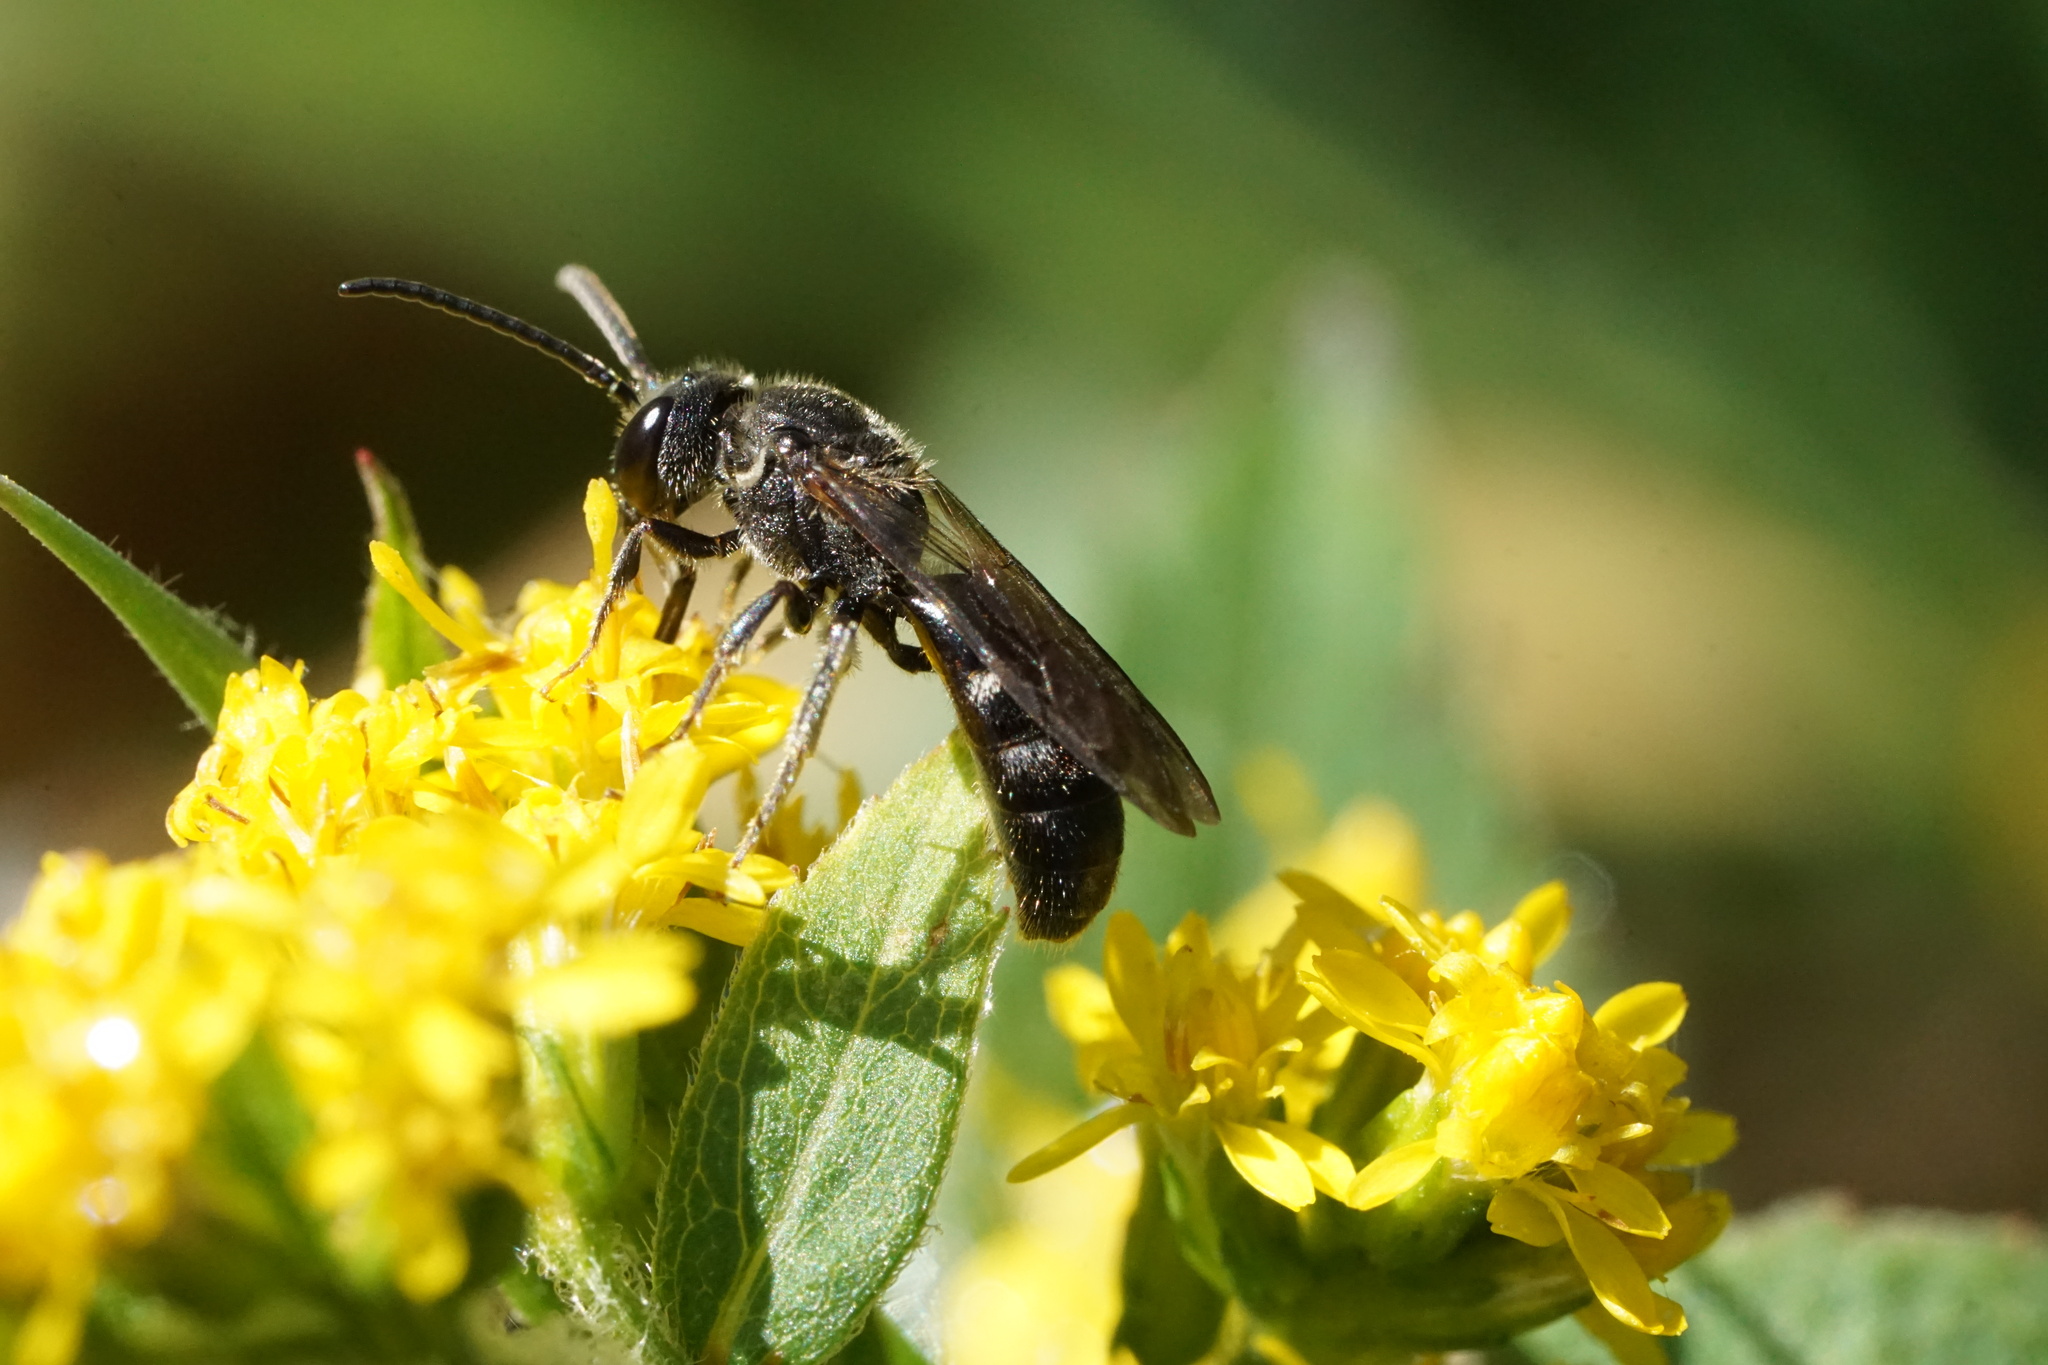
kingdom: Animalia
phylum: Arthropoda
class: Insecta
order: Hymenoptera
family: Halictidae
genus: Lasioglossum
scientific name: Lasioglossum fuscipenne
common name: Brown-winged sweat bee
